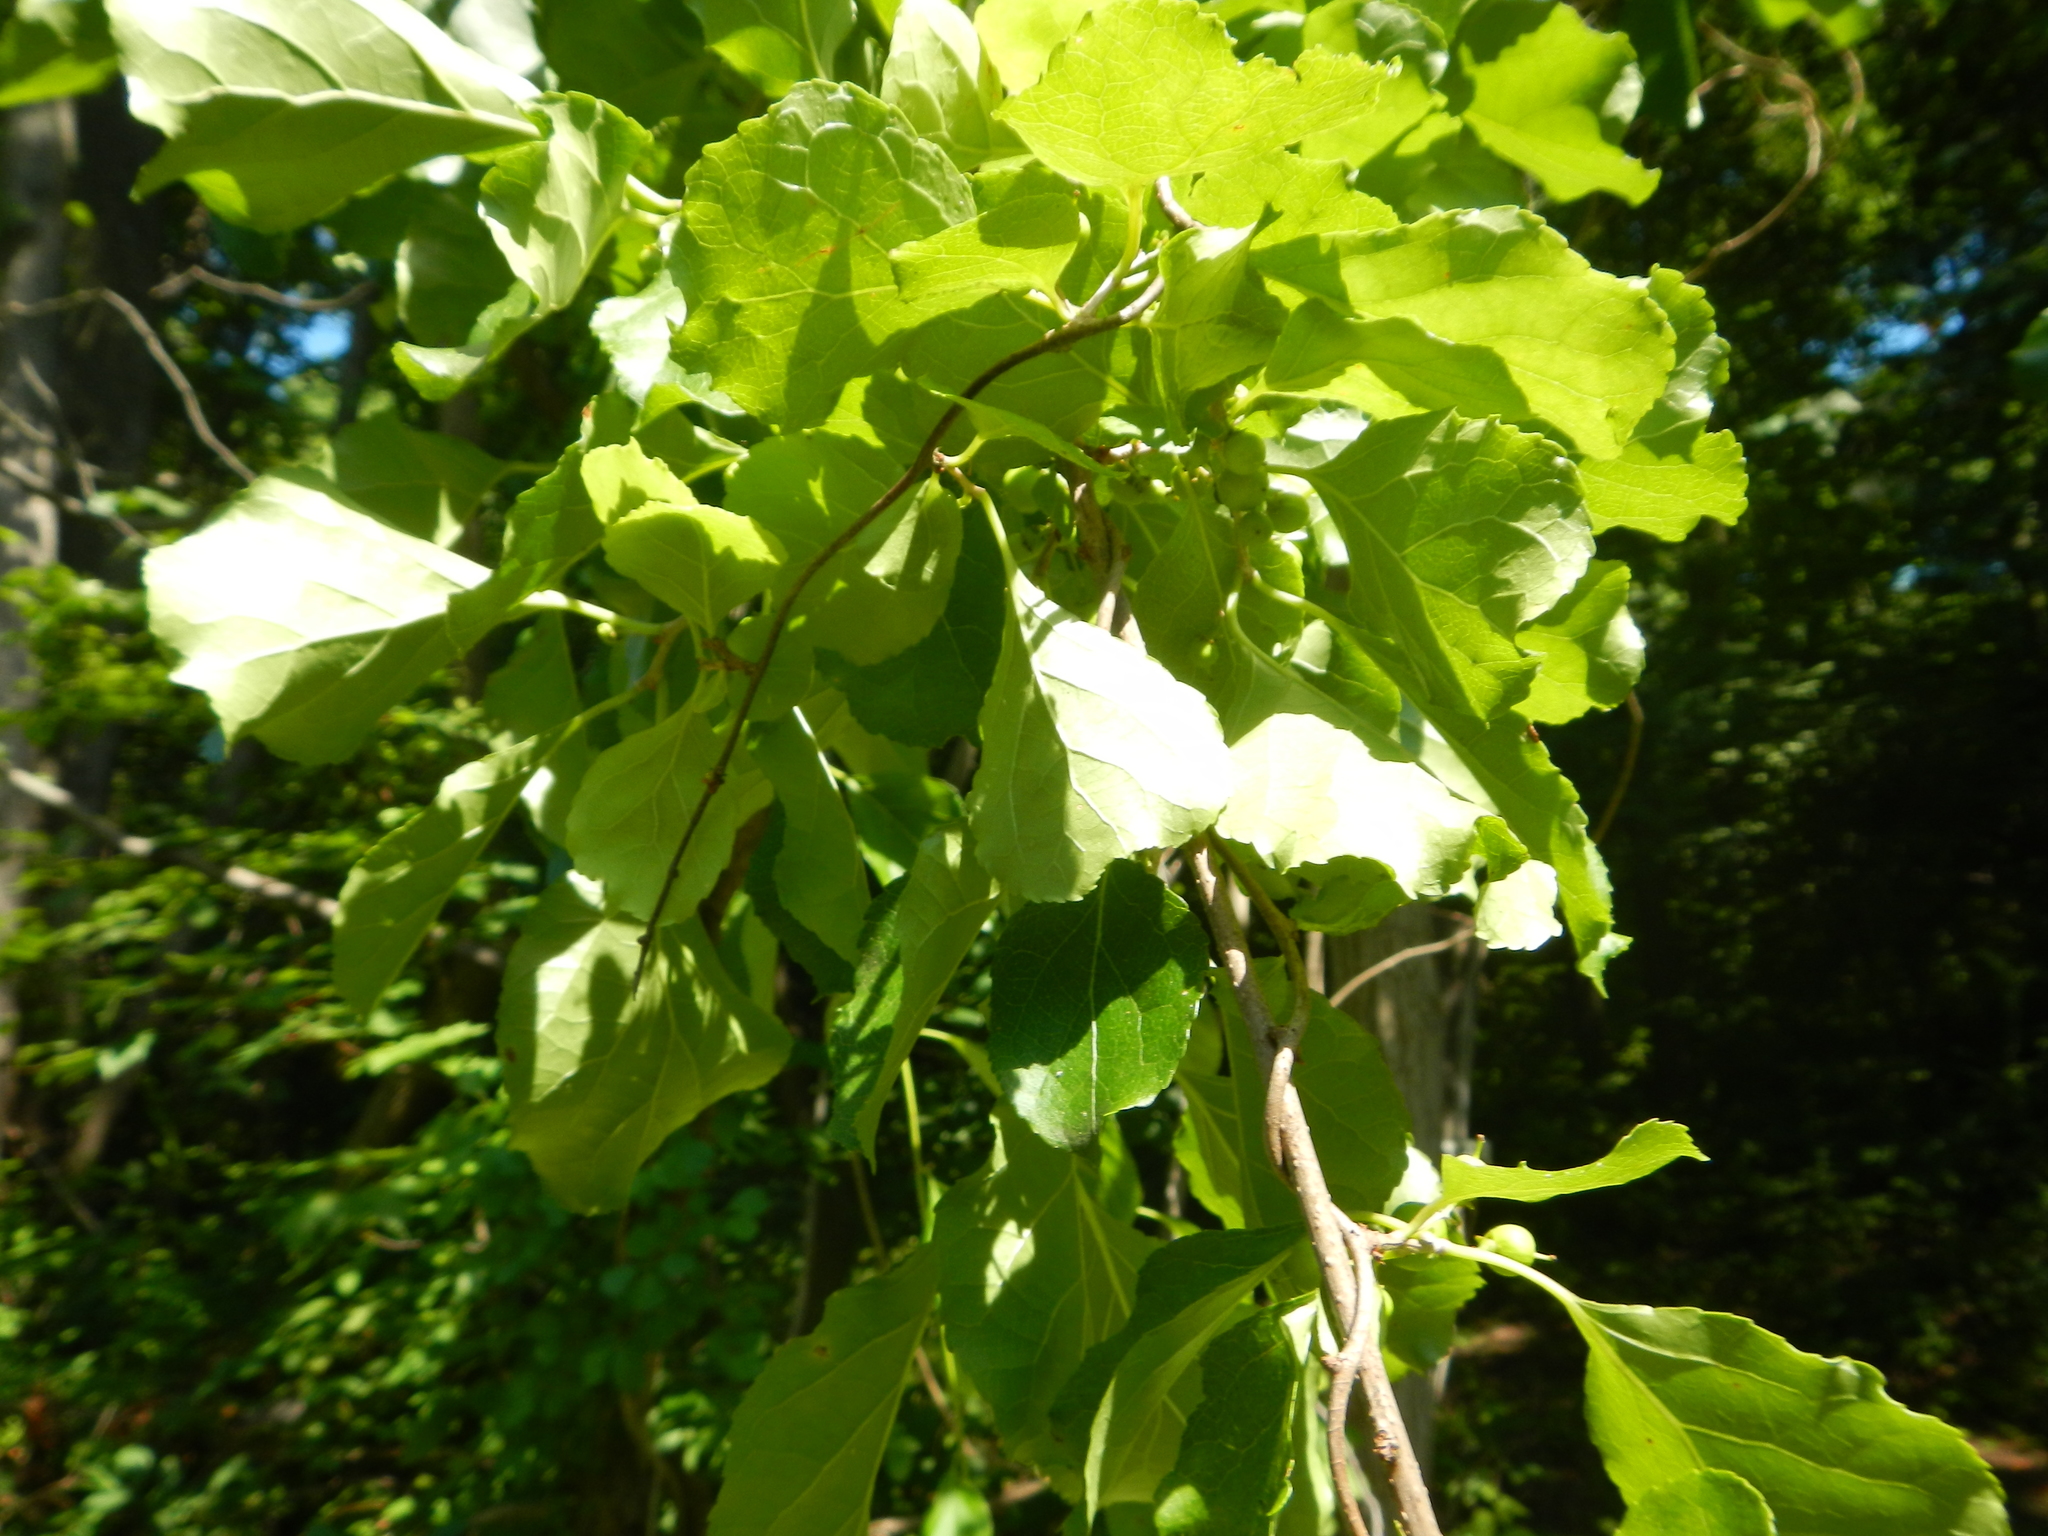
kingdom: Plantae
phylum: Tracheophyta
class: Magnoliopsida
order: Celastrales
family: Celastraceae
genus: Celastrus
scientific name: Celastrus orbiculatus
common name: Oriental bittersweet
